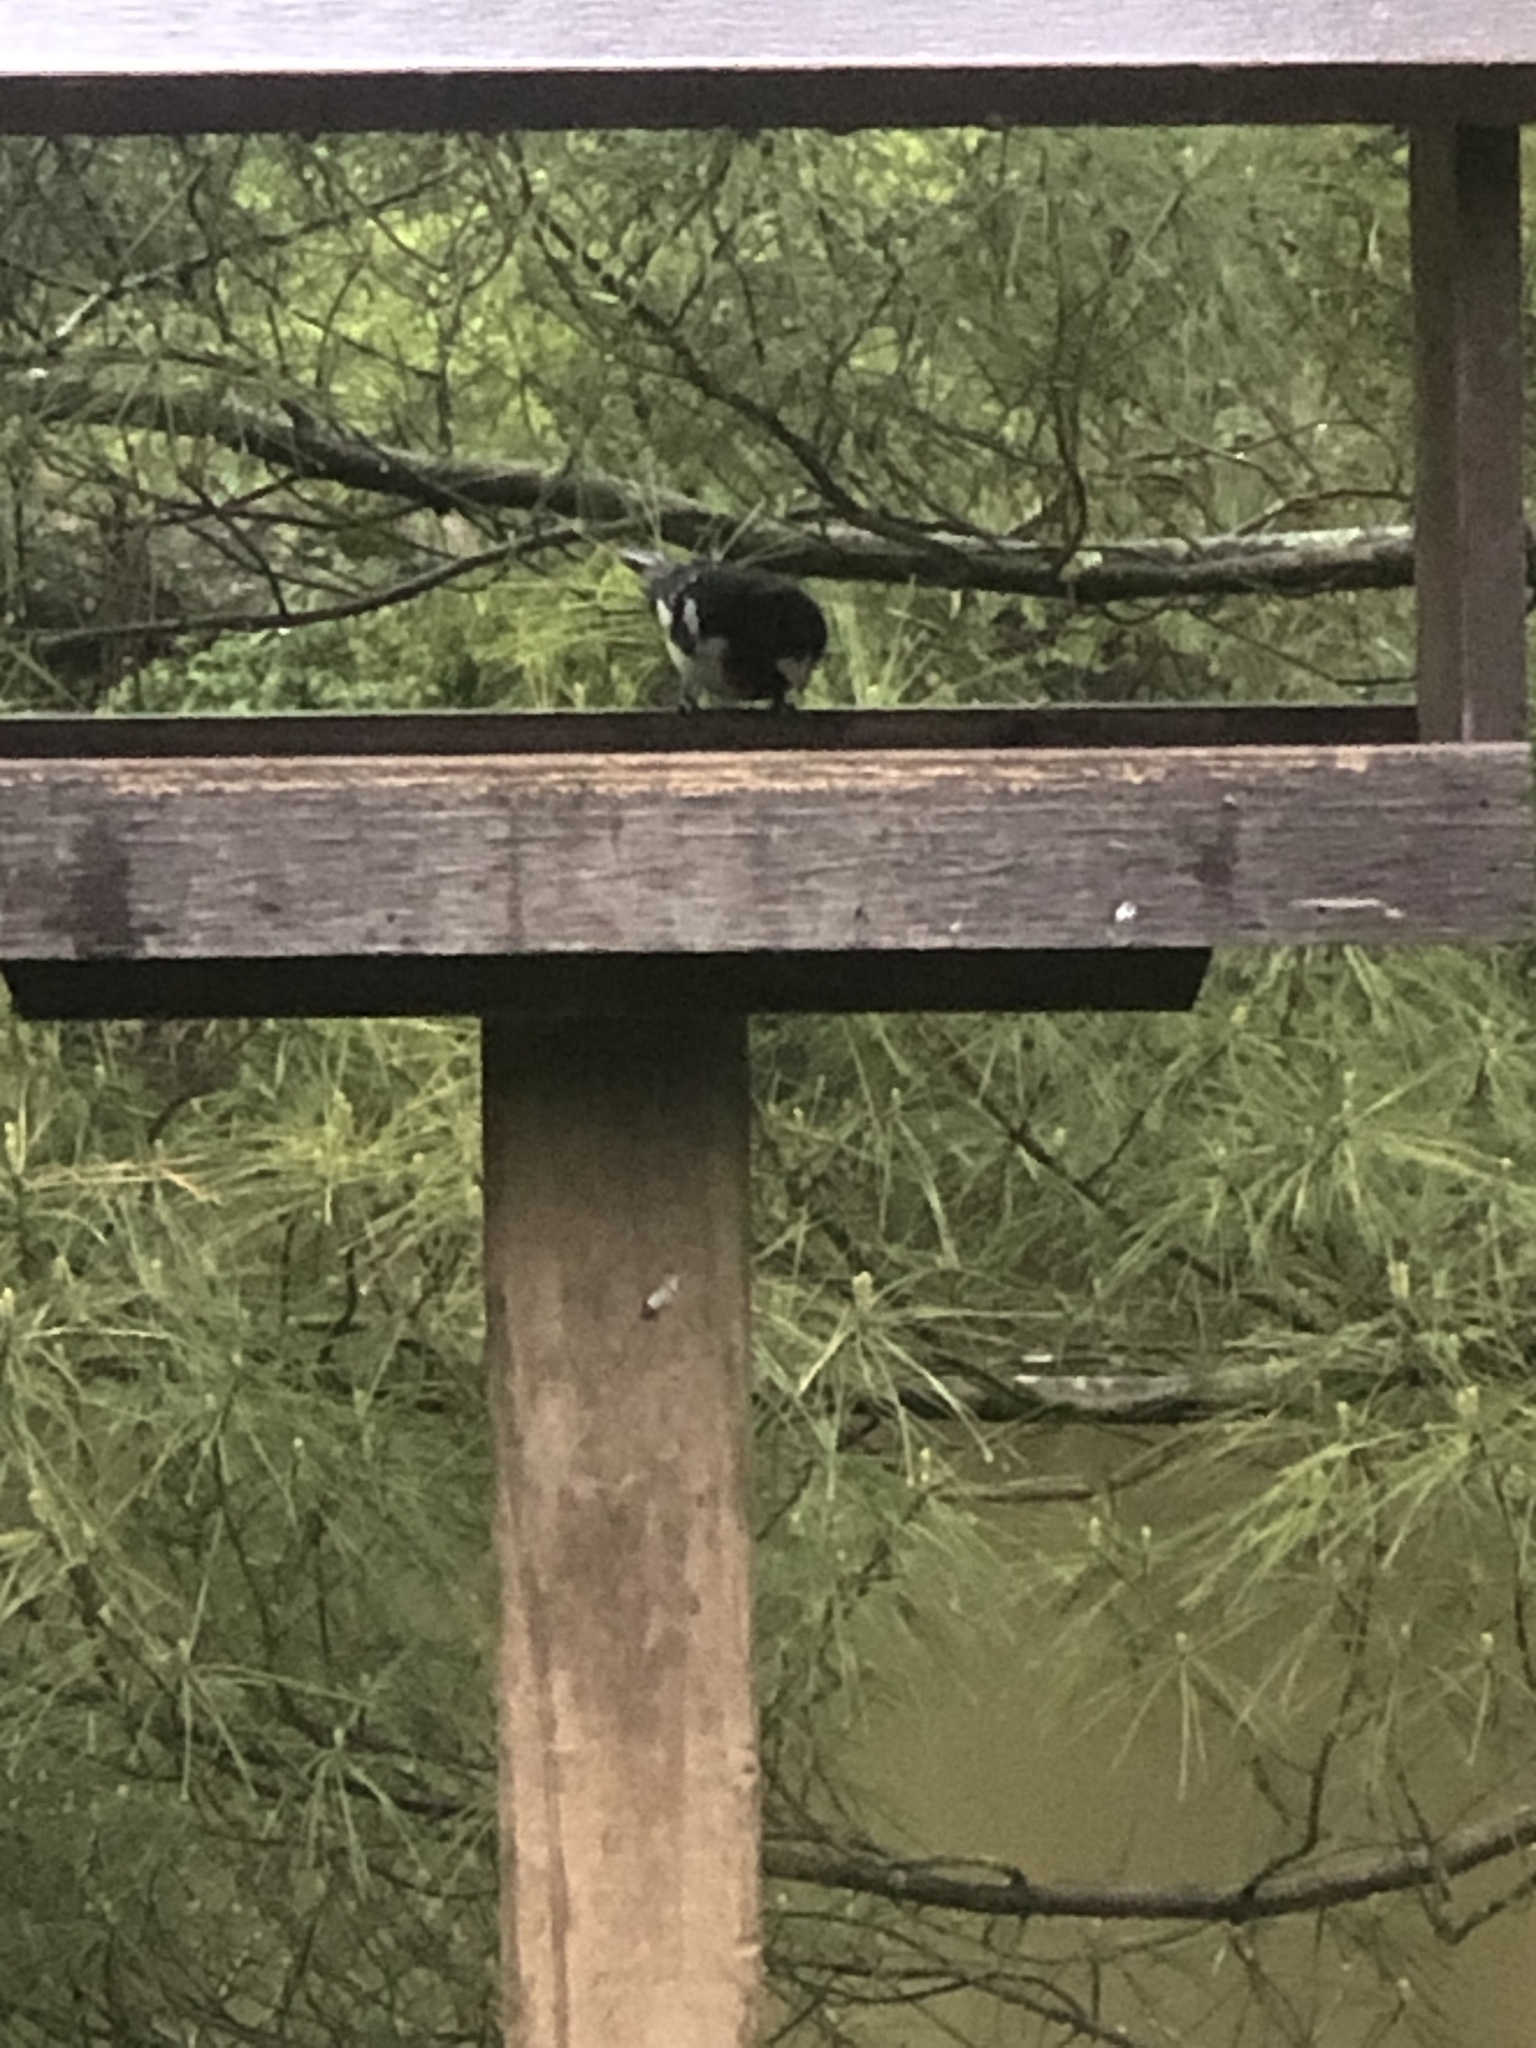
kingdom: Animalia
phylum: Chordata
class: Aves
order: Passeriformes
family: Cardinalidae
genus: Pheucticus
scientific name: Pheucticus ludovicianus
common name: Rose-breasted grosbeak
